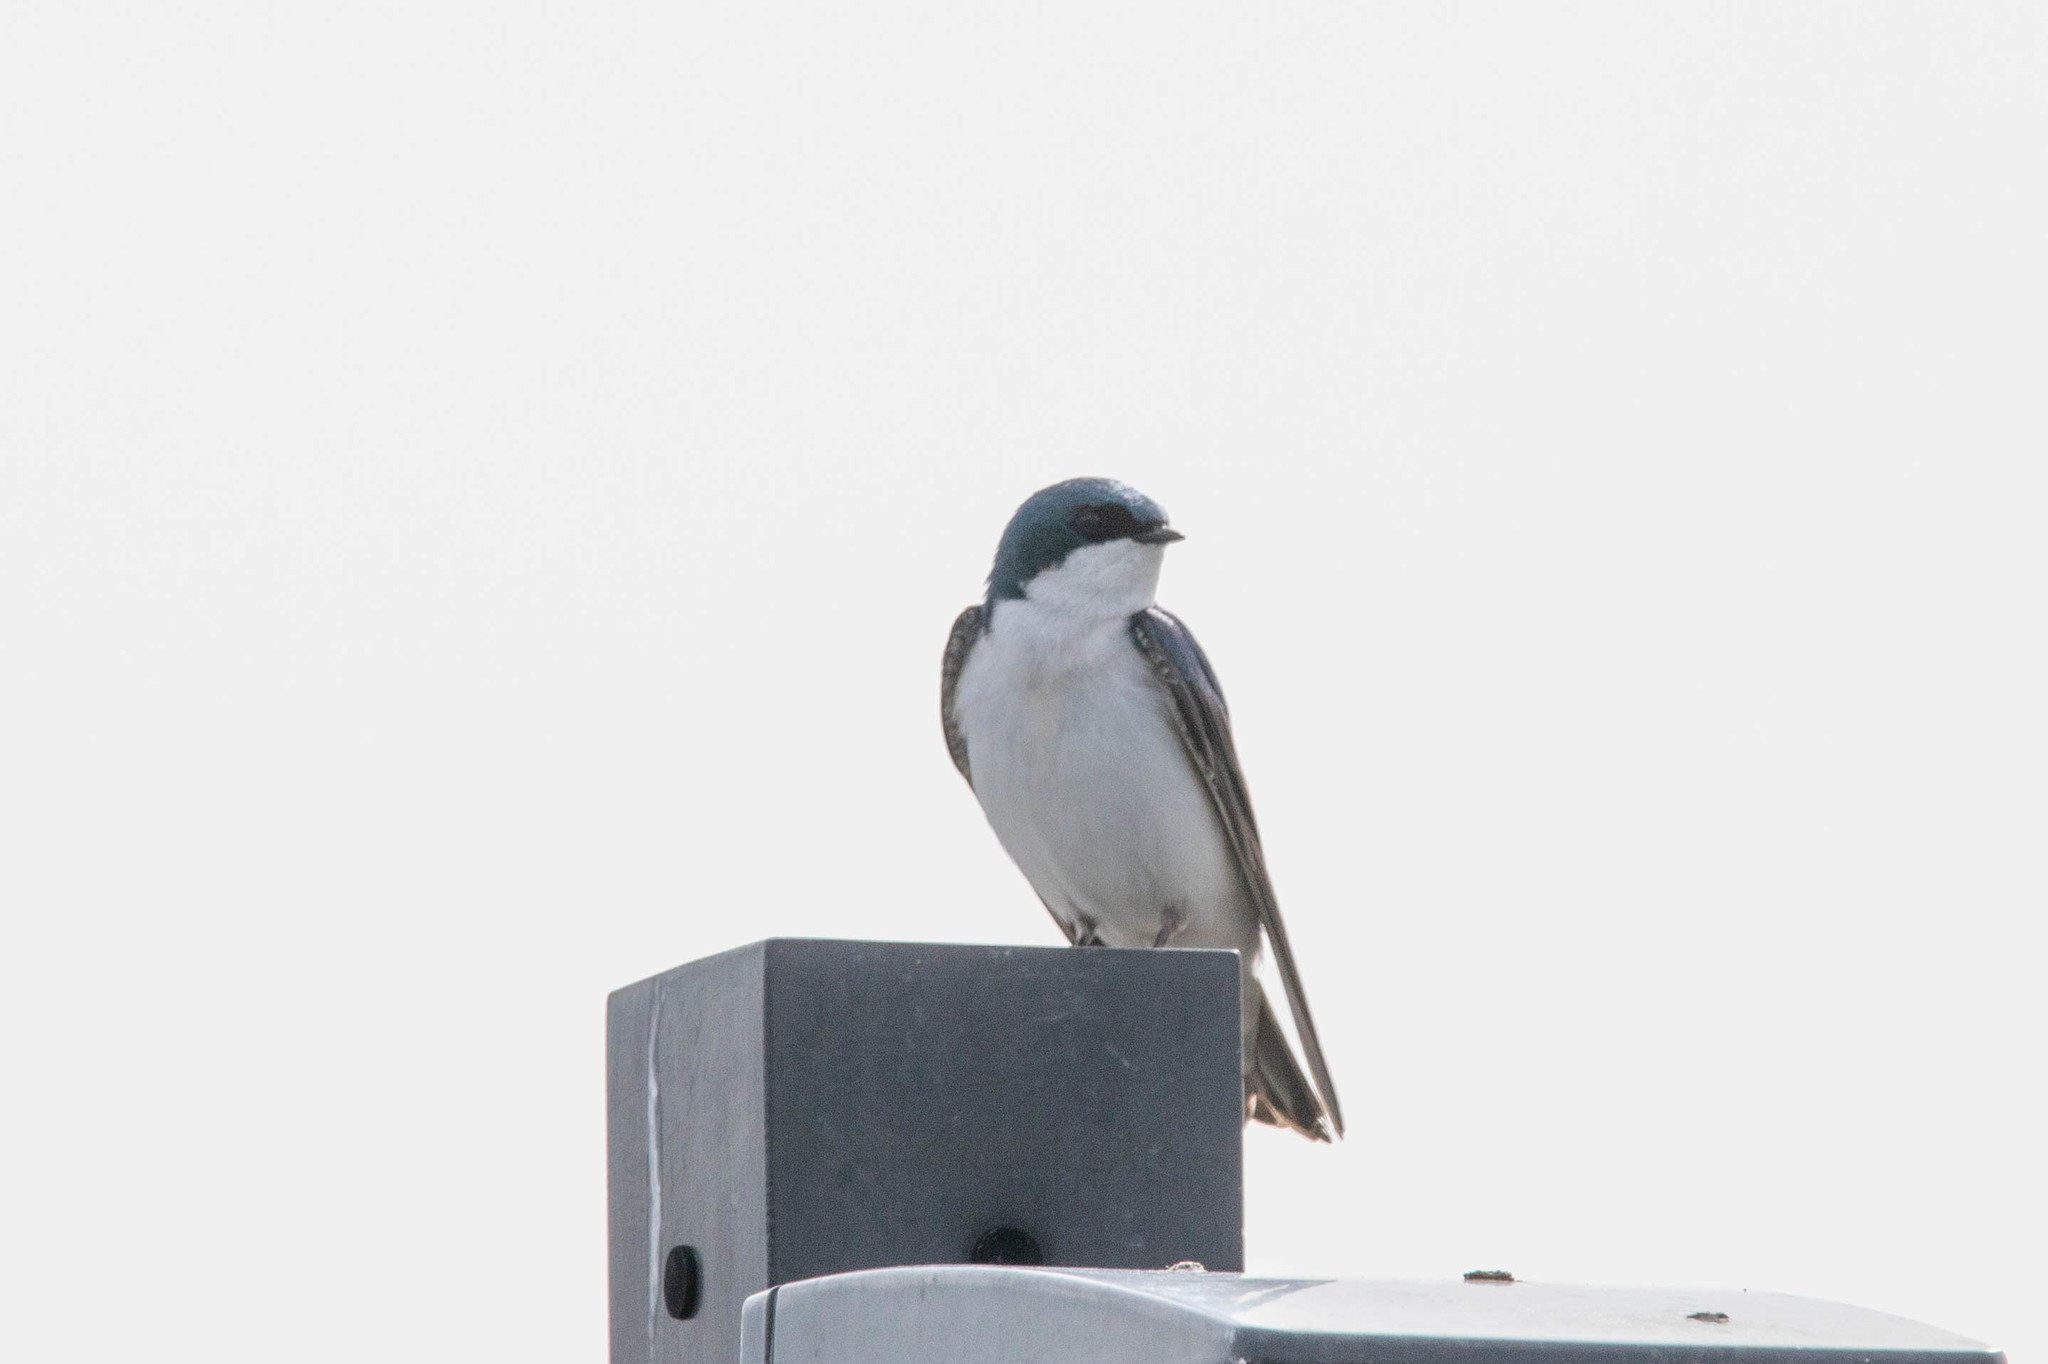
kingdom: Animalia
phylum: Chordata
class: Aves
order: Passeriformes
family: Hirundinidae
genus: Tachycineta
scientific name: Tachycineta bicolor
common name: Tree swallow
